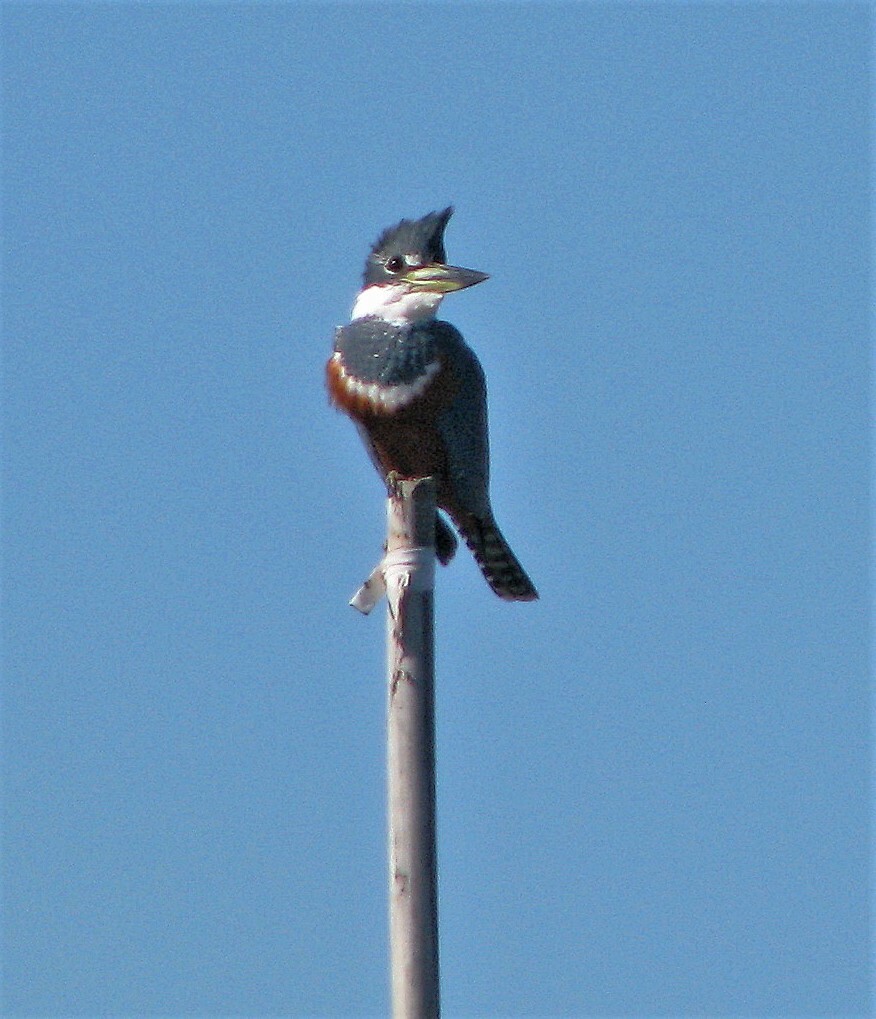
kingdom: Animalia
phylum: Chordata
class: Aves
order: Coraciiformes
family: Alcedinidae
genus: Megaceryle
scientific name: Megaceryle torquata
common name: Ringed kingfisher
